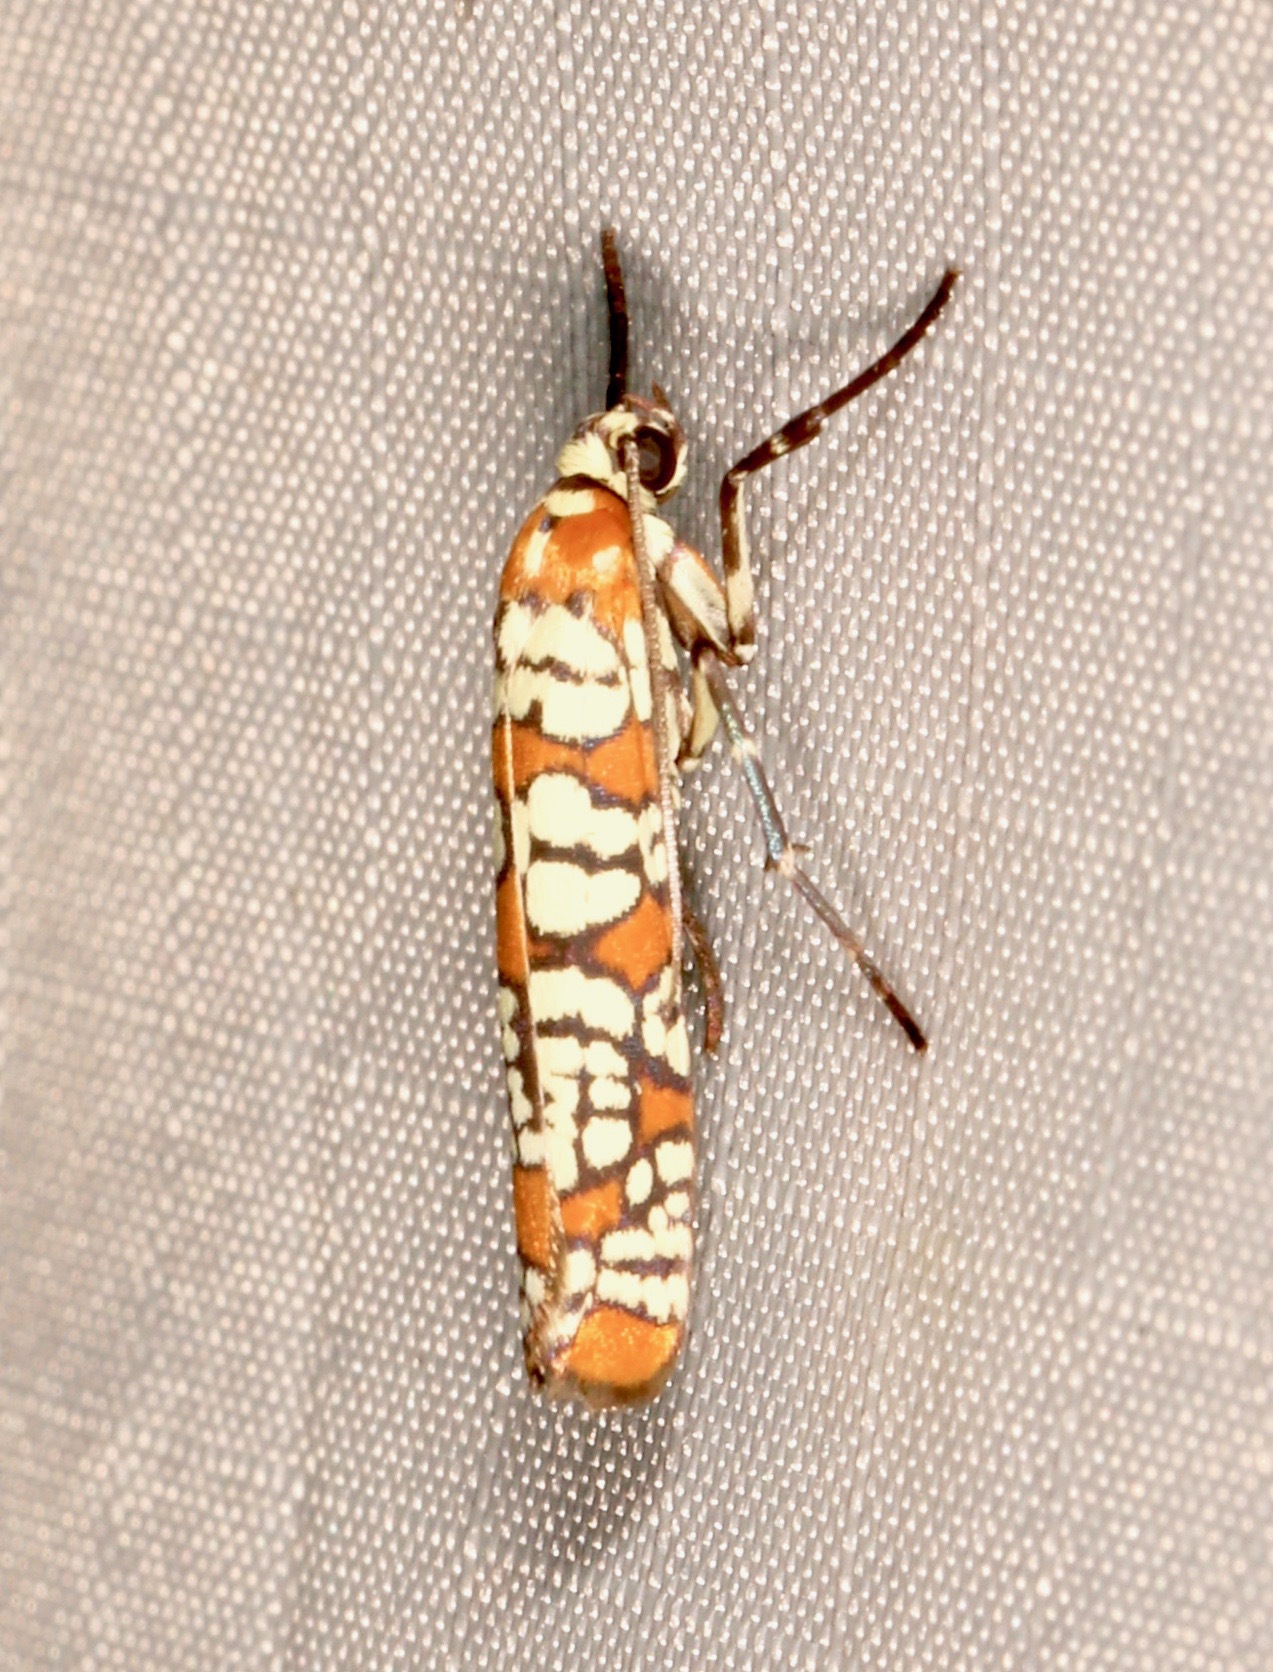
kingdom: Animalia
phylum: Arthropoda
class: Insecta
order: Lepidoptera
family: Attevidae
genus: Atteva
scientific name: Atteva punctella
